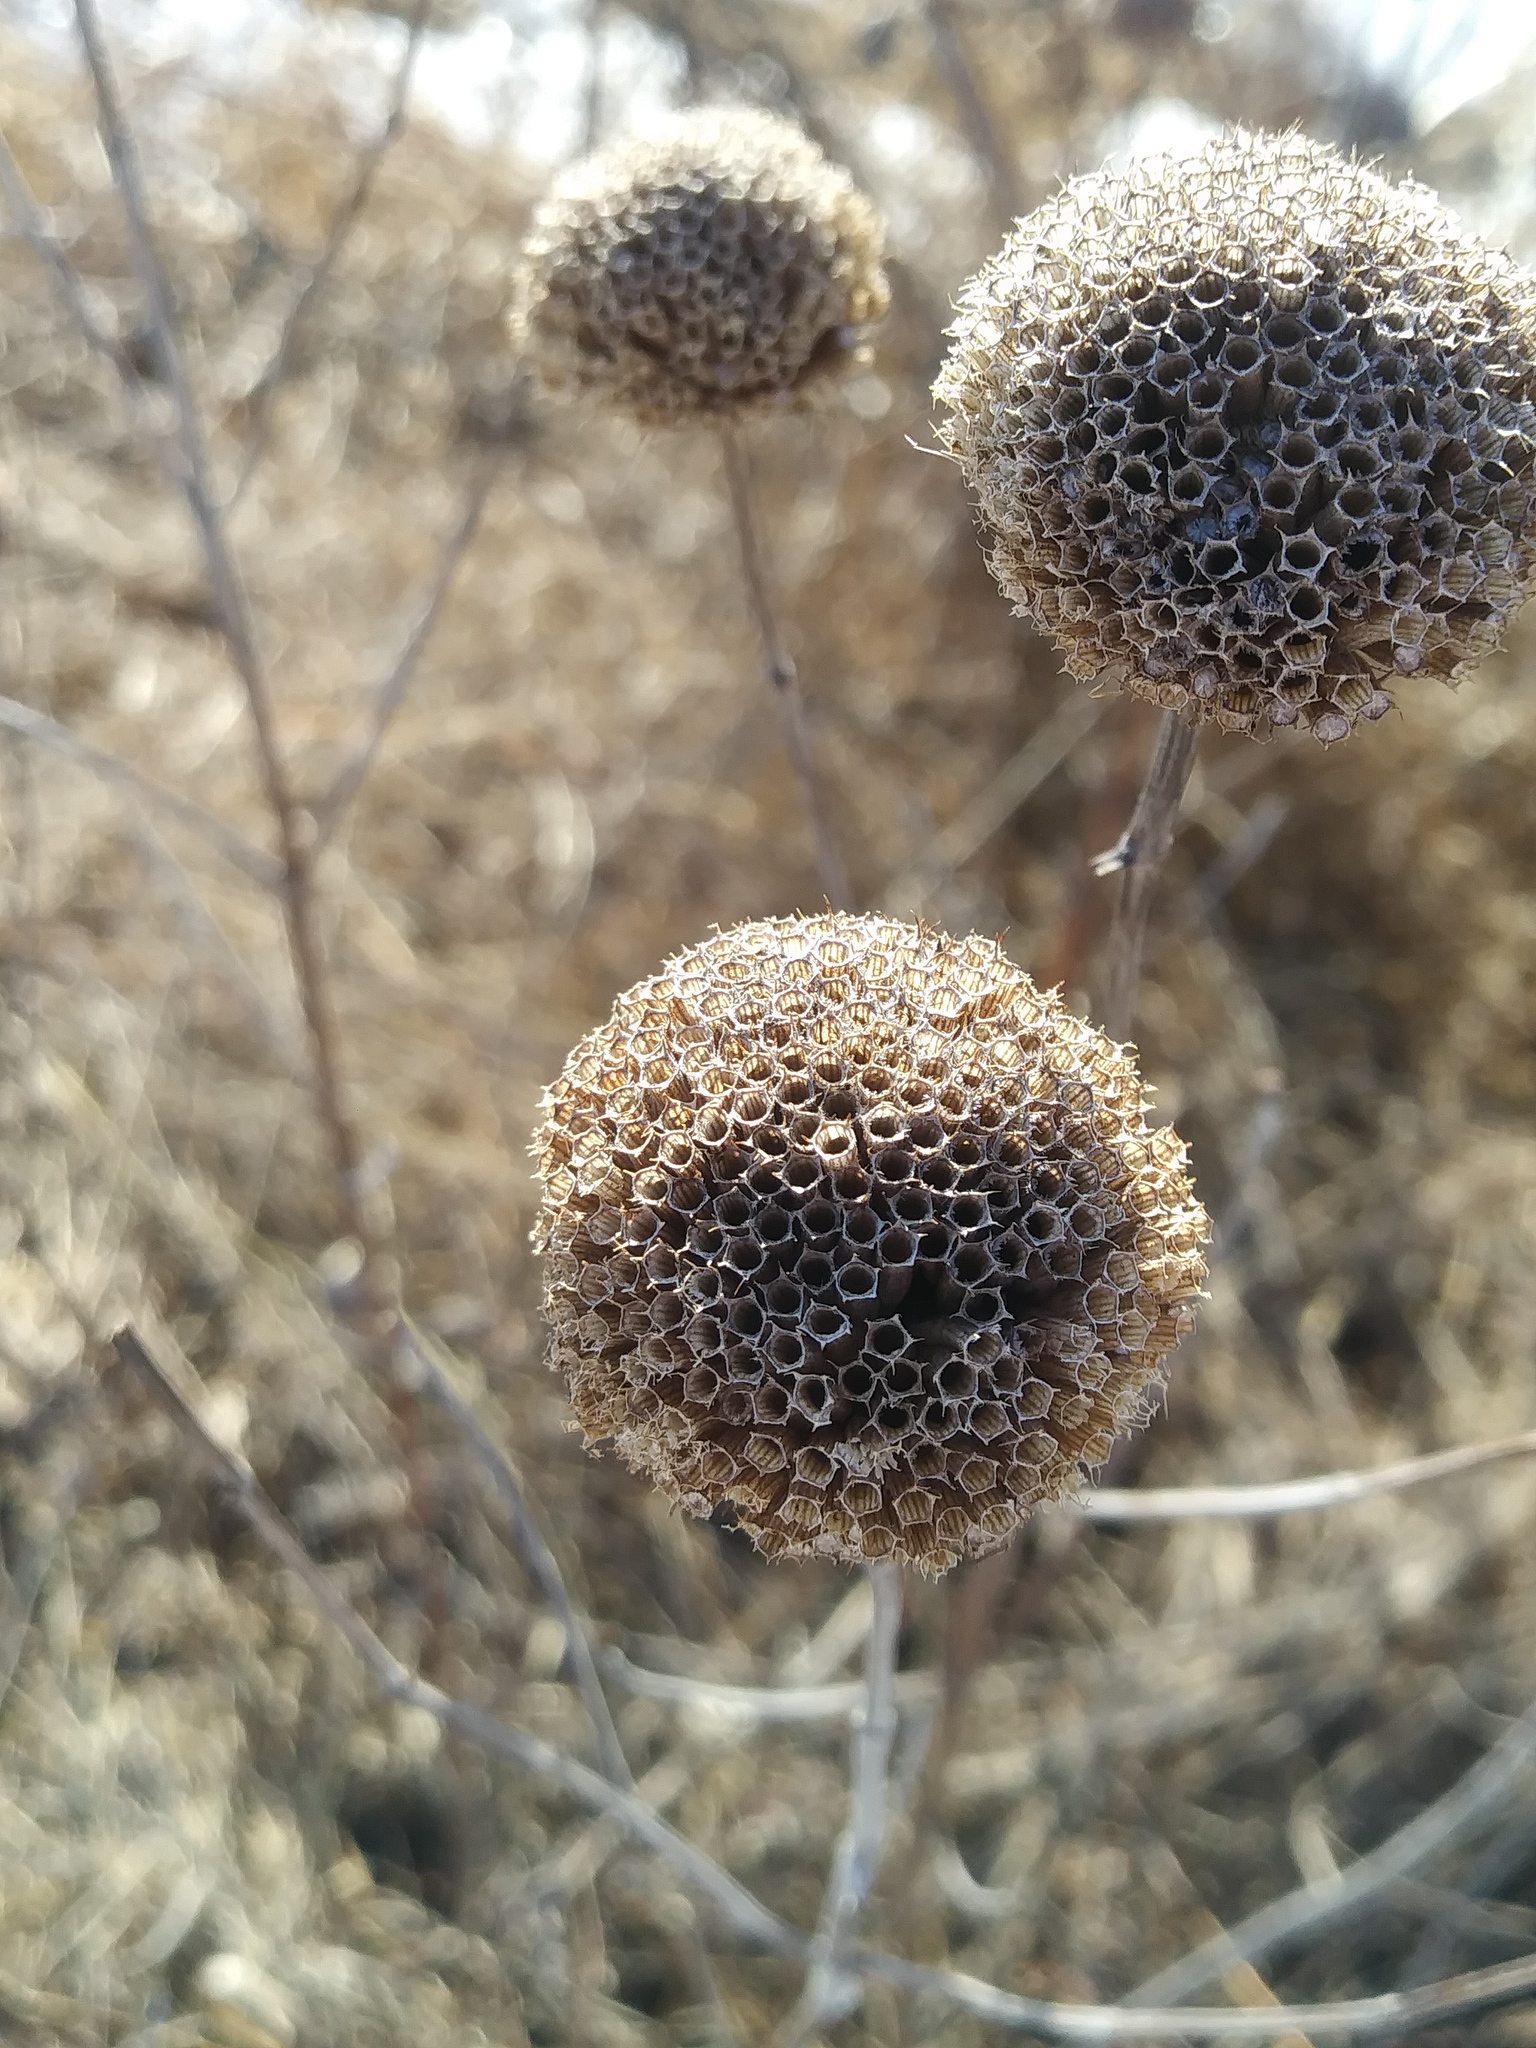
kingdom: Plantae
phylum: Tracheophyta
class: Magnoliopsida
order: Lamiales
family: Lamiaceae
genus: Monarda
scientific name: Monarda fistulosa
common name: Purple beebalm
